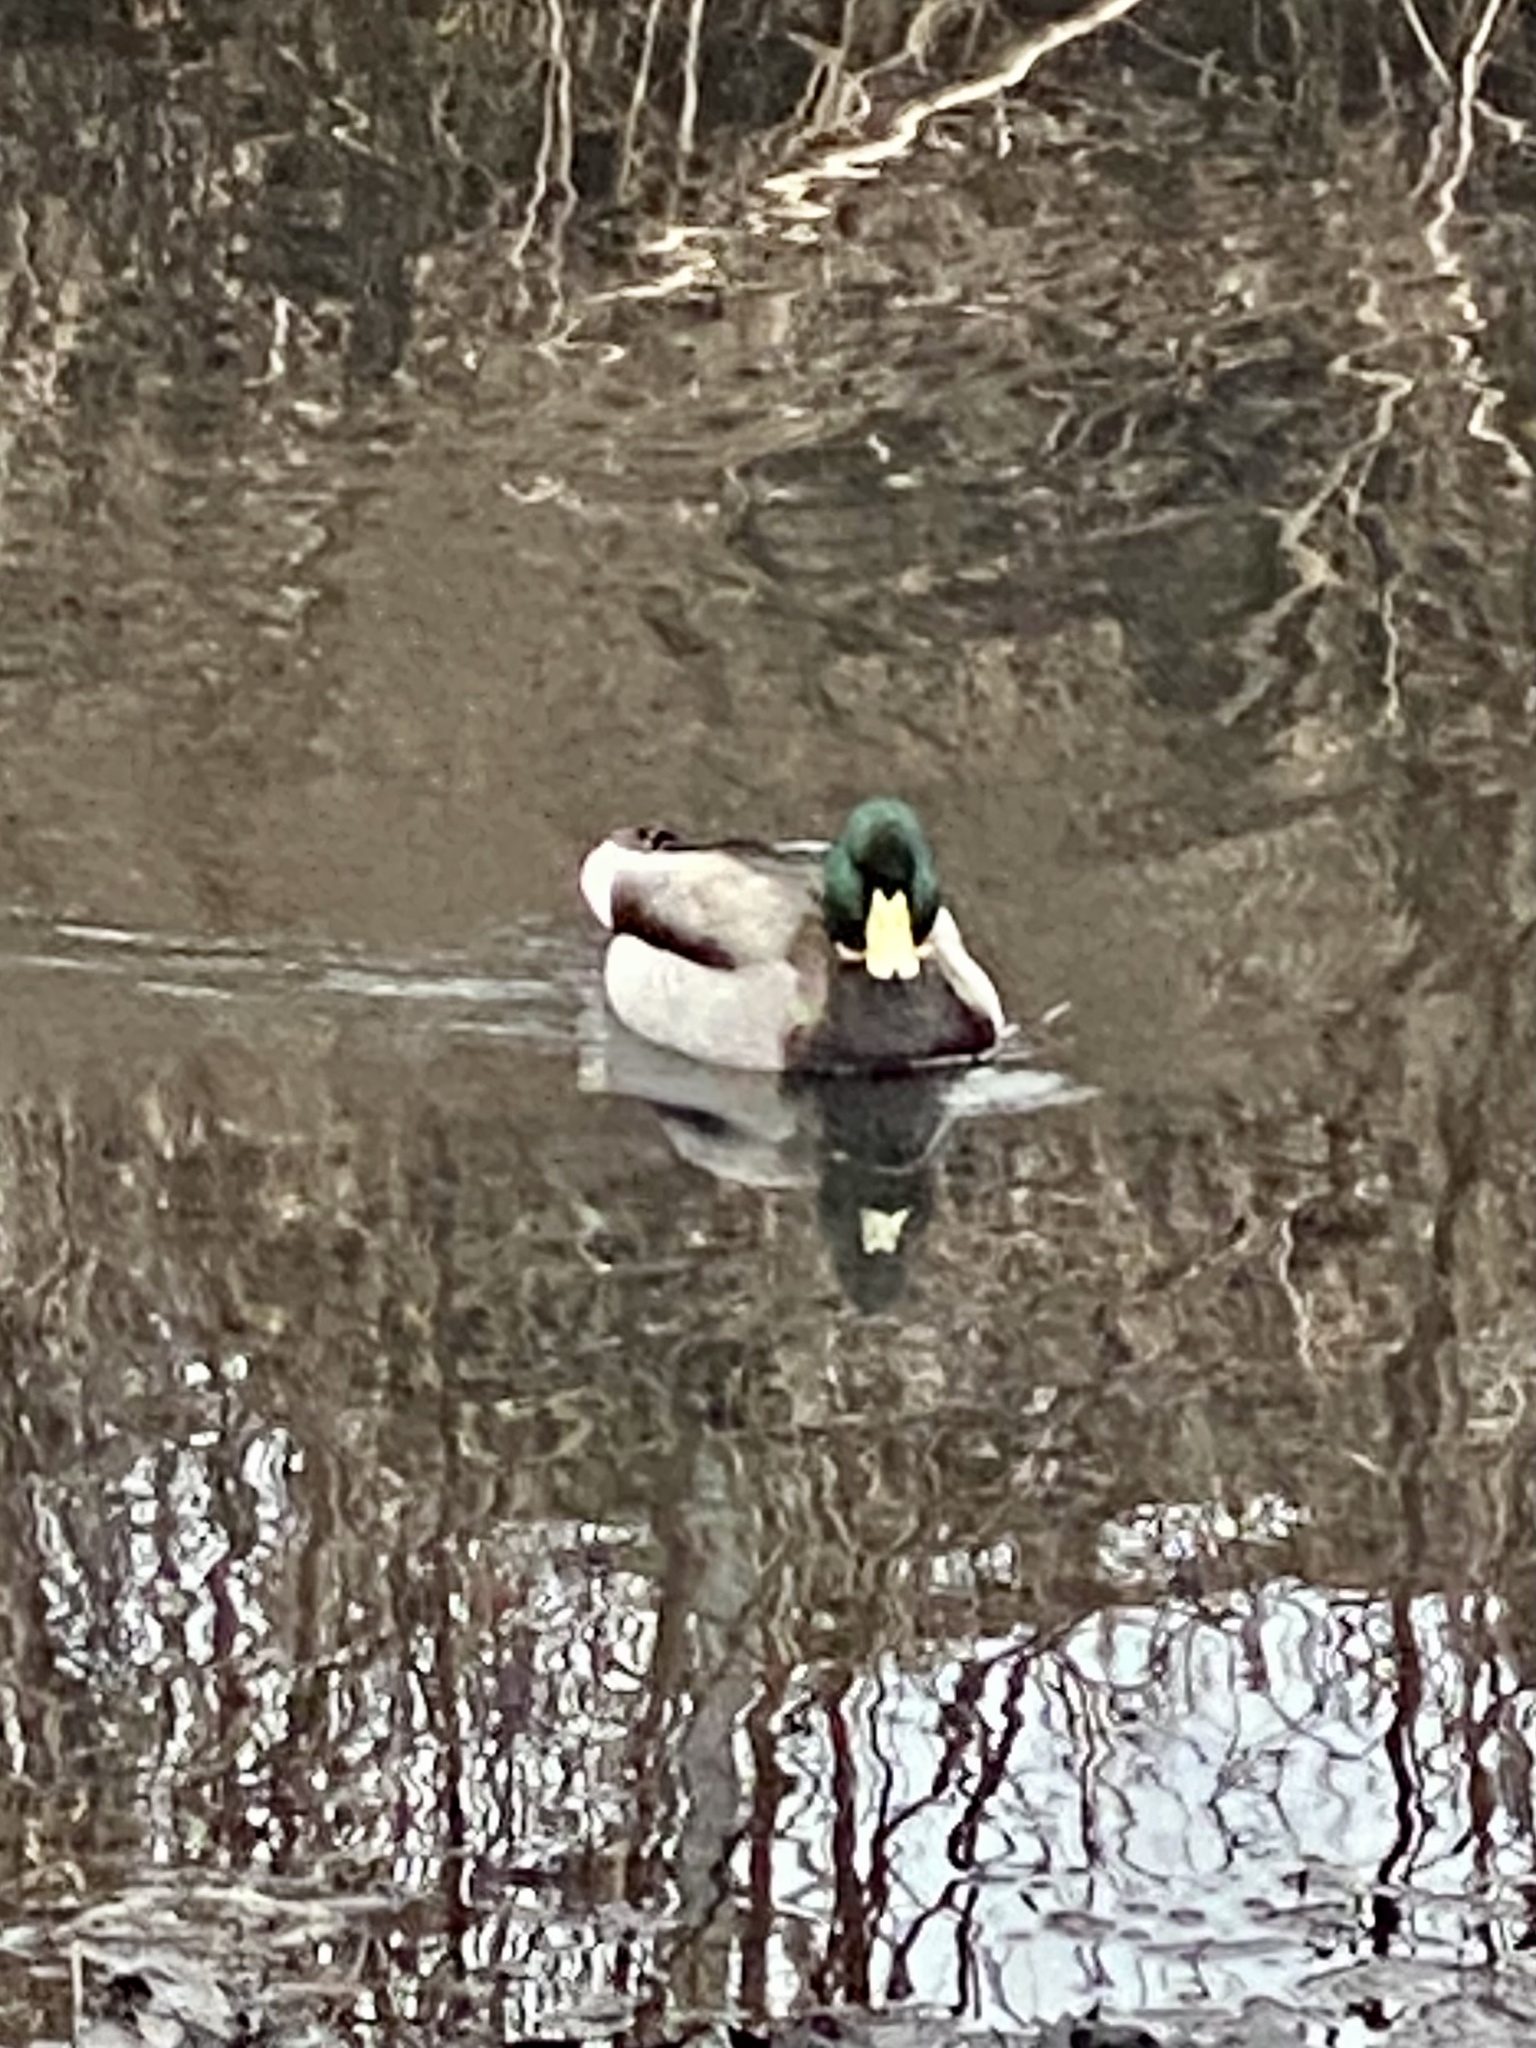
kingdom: Animalia
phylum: Chordata
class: Aves
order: Anseriformes
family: Anatidae
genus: Anas
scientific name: Anas platyrhynchos
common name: Mallard
